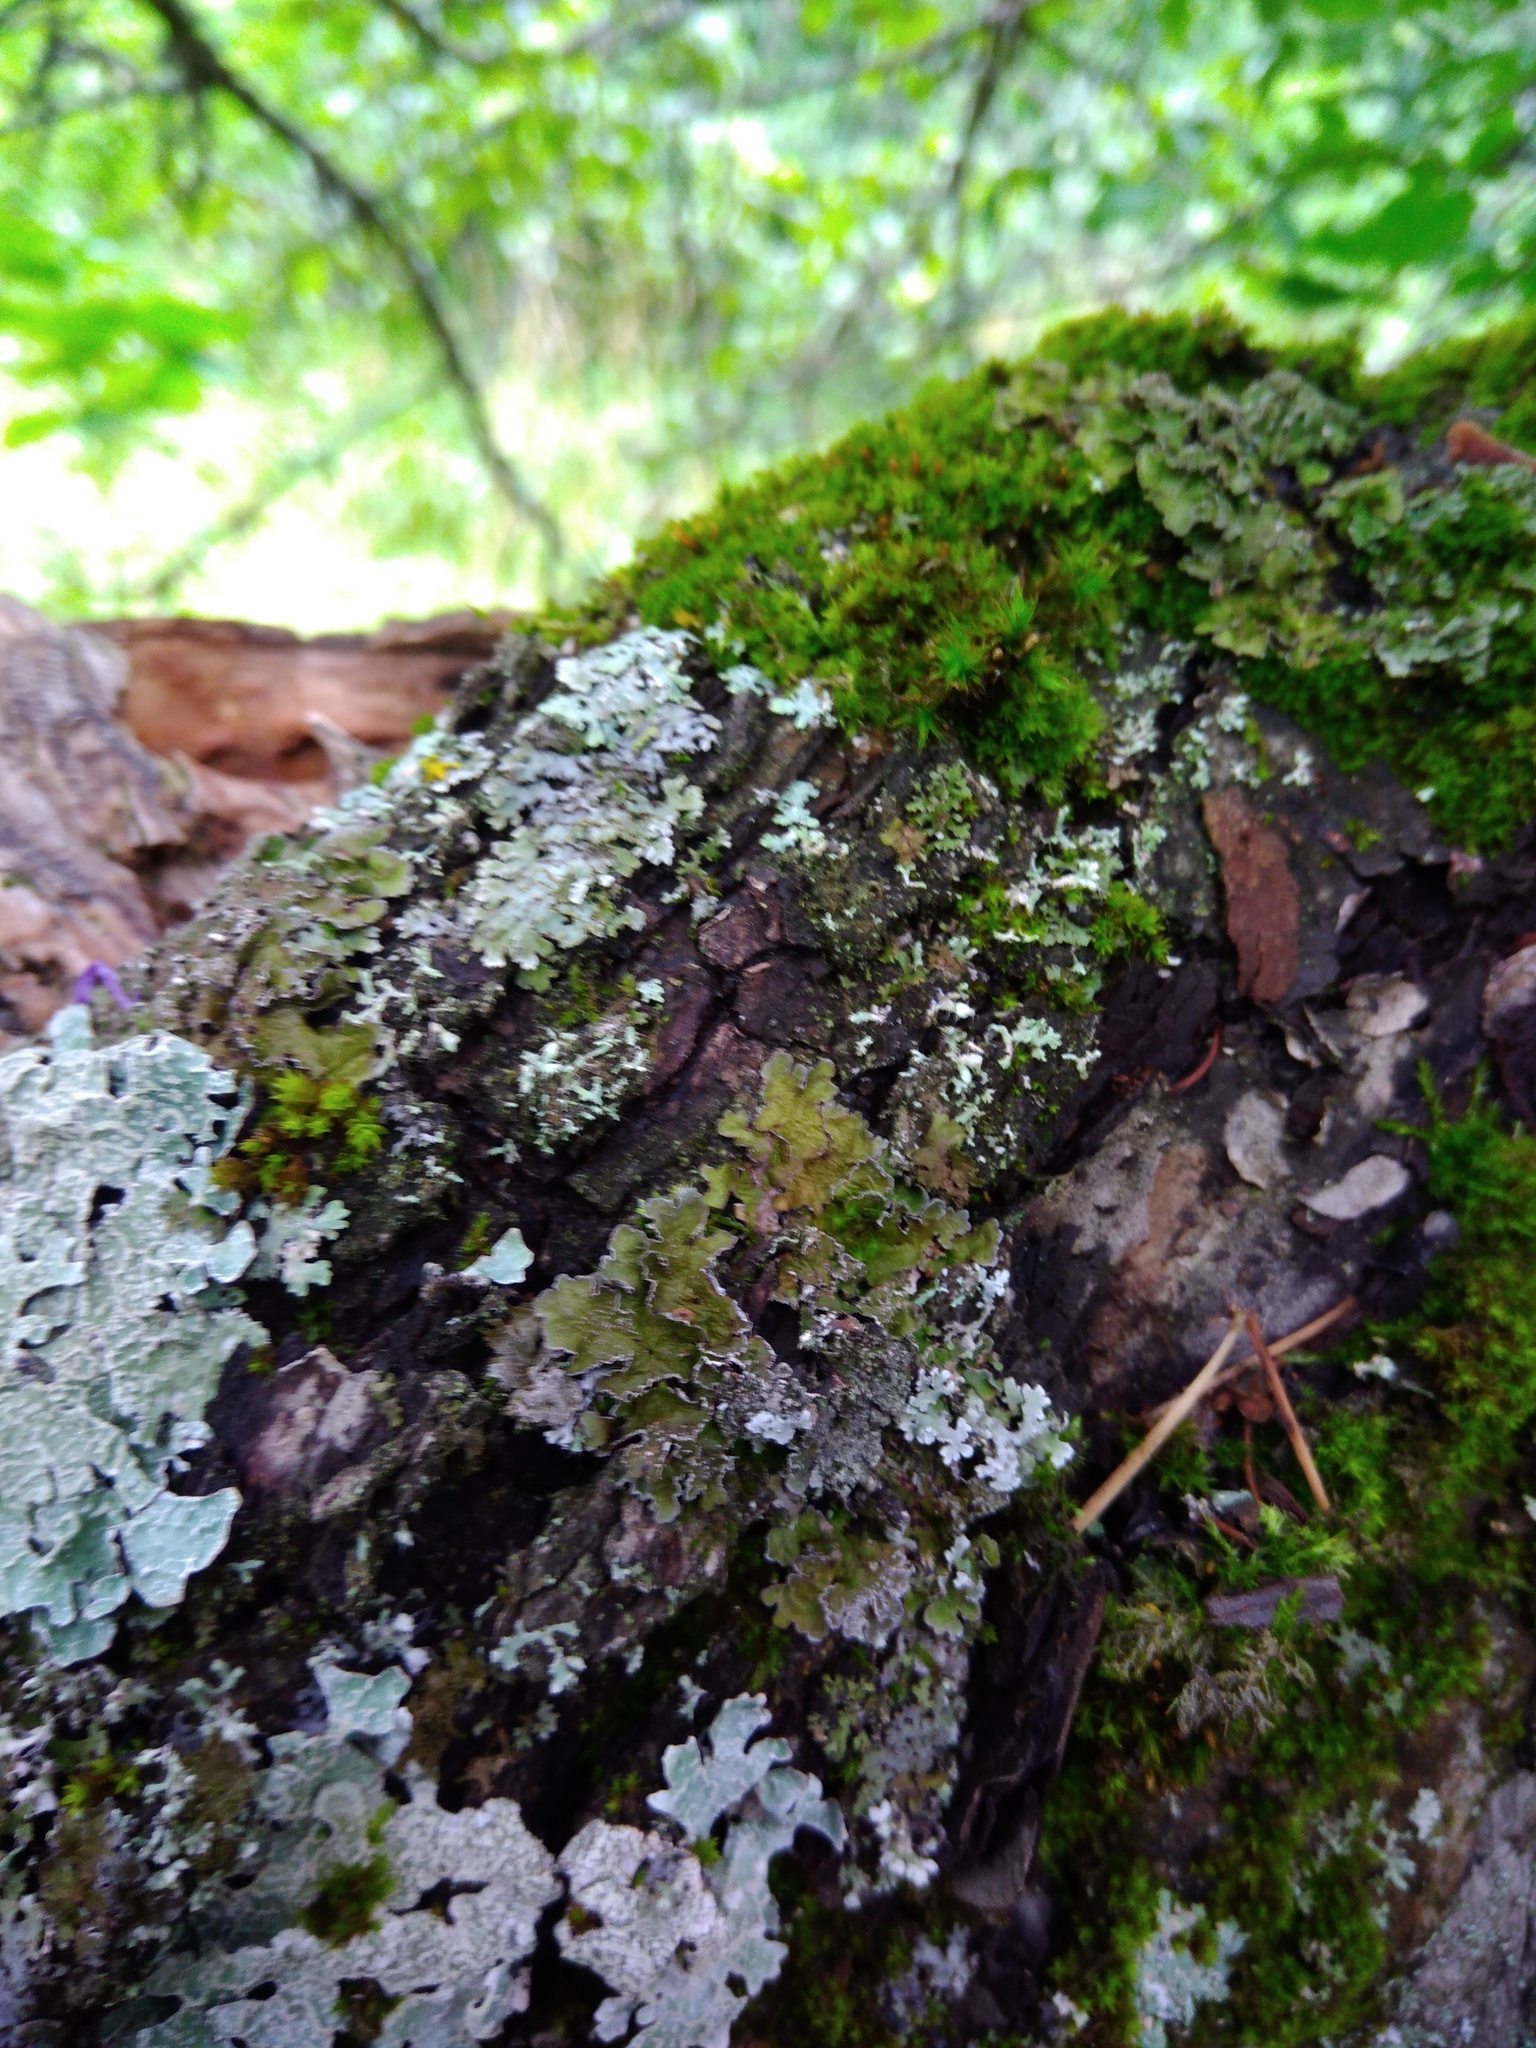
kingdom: Fungi
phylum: Ascomycota
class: Lecanoromycetes
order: Lecanorales
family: Parmeliaceae
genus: Melanelixia
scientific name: Melanelixia subargentifera
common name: Whiskered camouflage lichen
